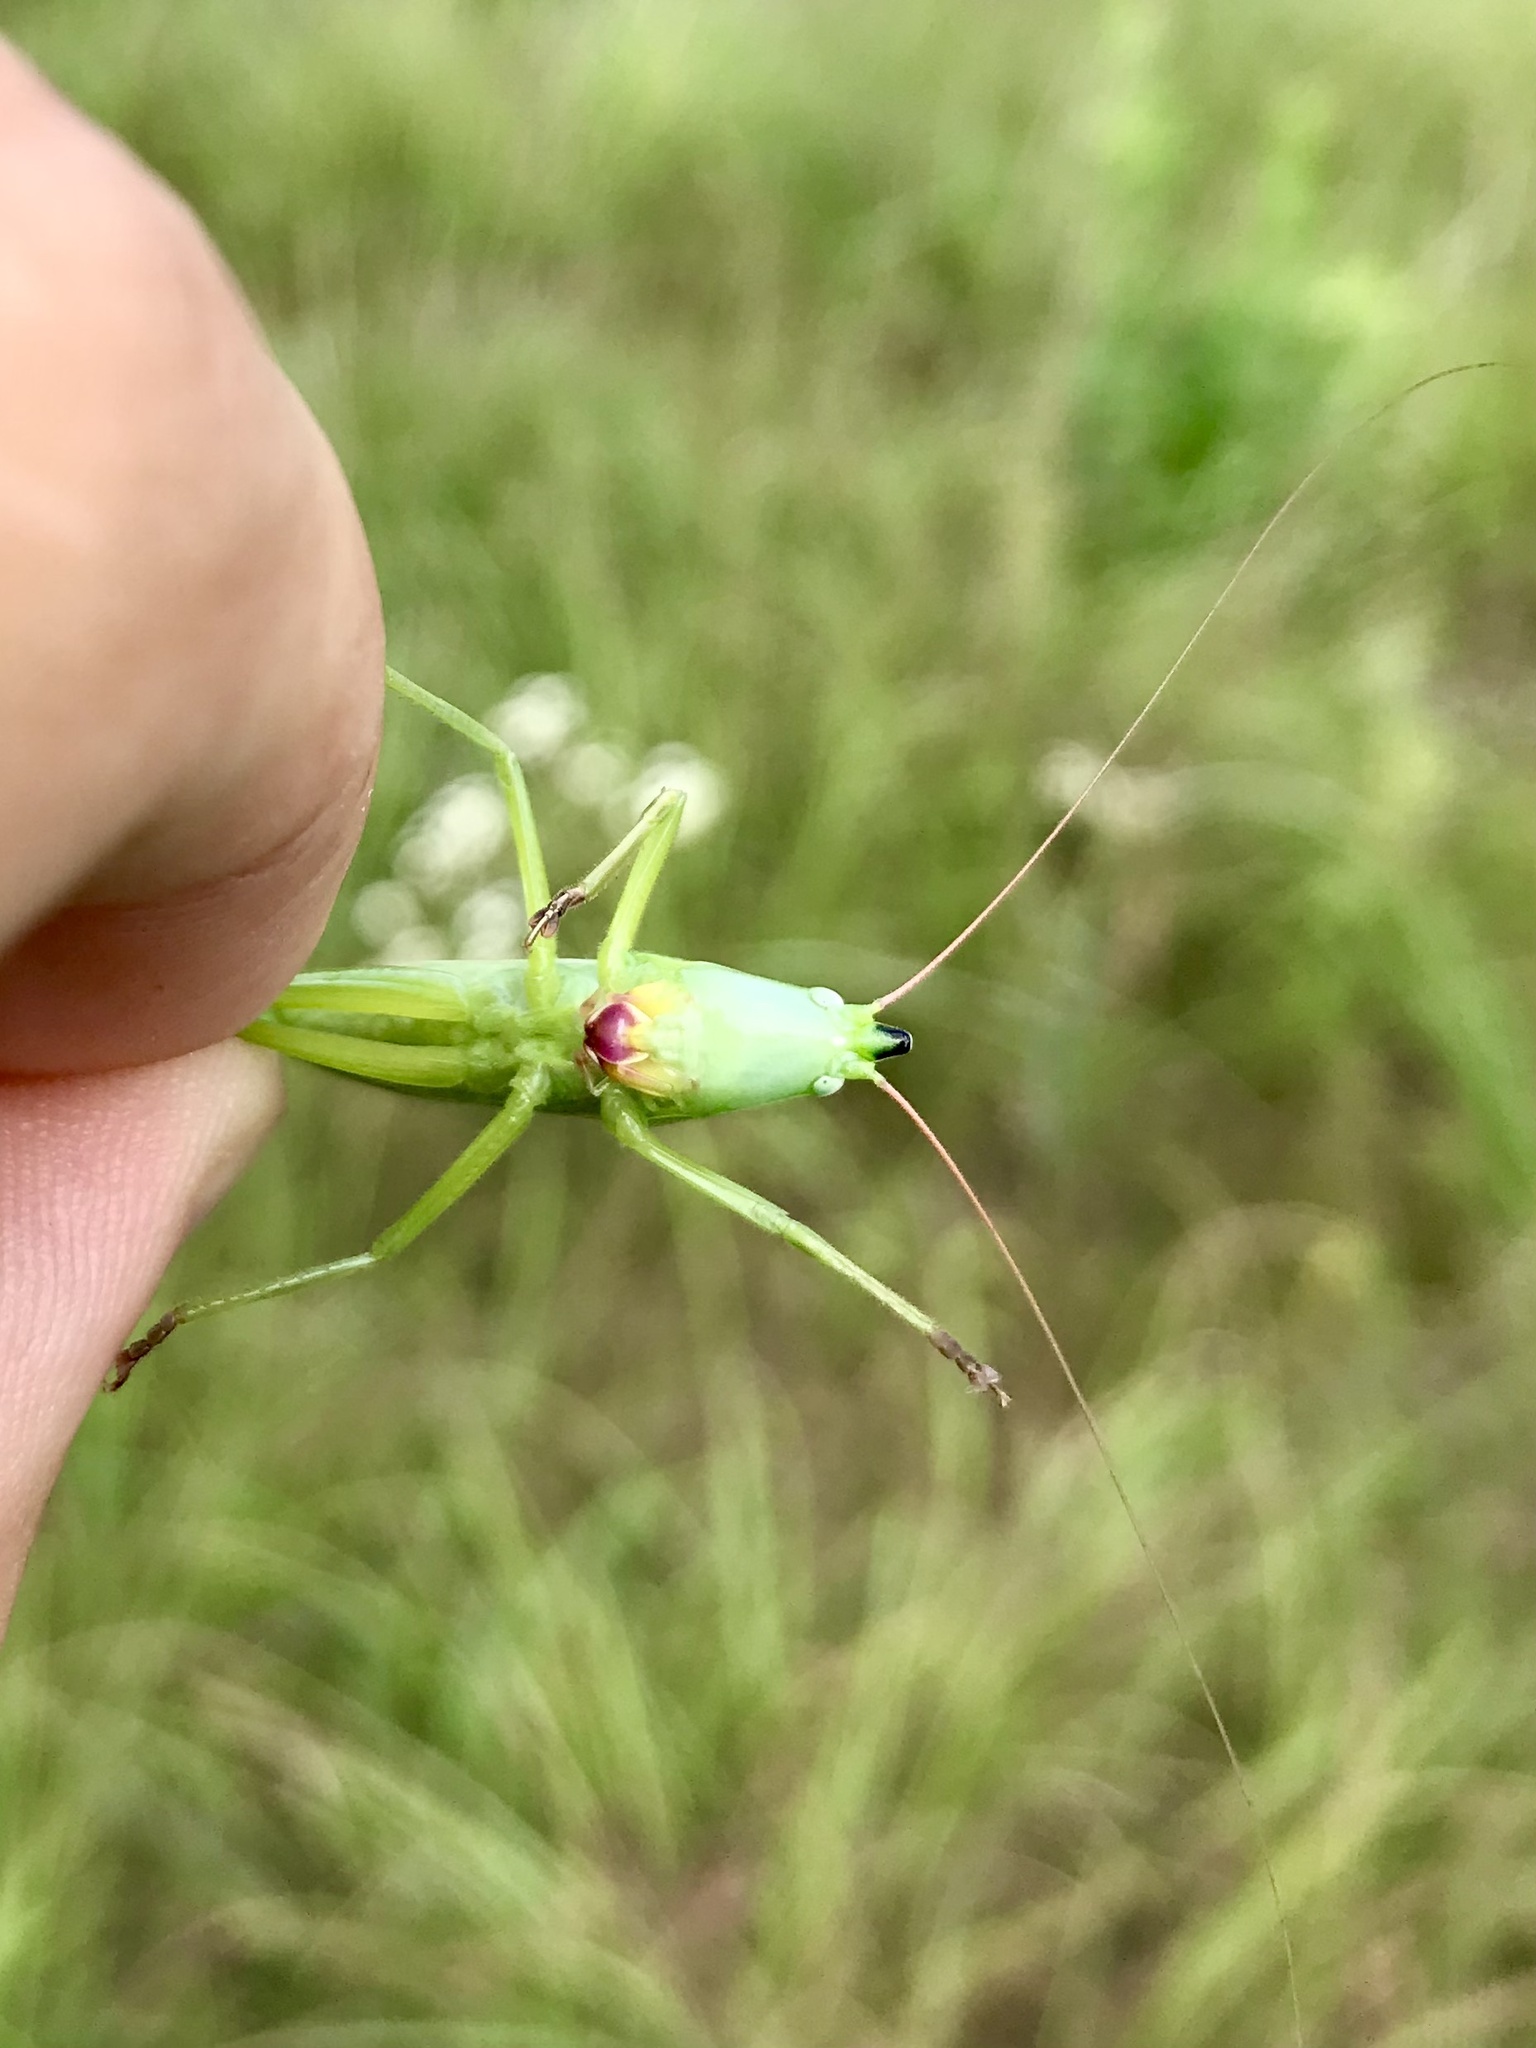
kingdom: Animalia
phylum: Arthropoda
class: Insecta
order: Orthoptera
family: Tettigoniidae
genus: Neoconocephalus
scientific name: Neoconocephalus ensiger
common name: Swordbearer
